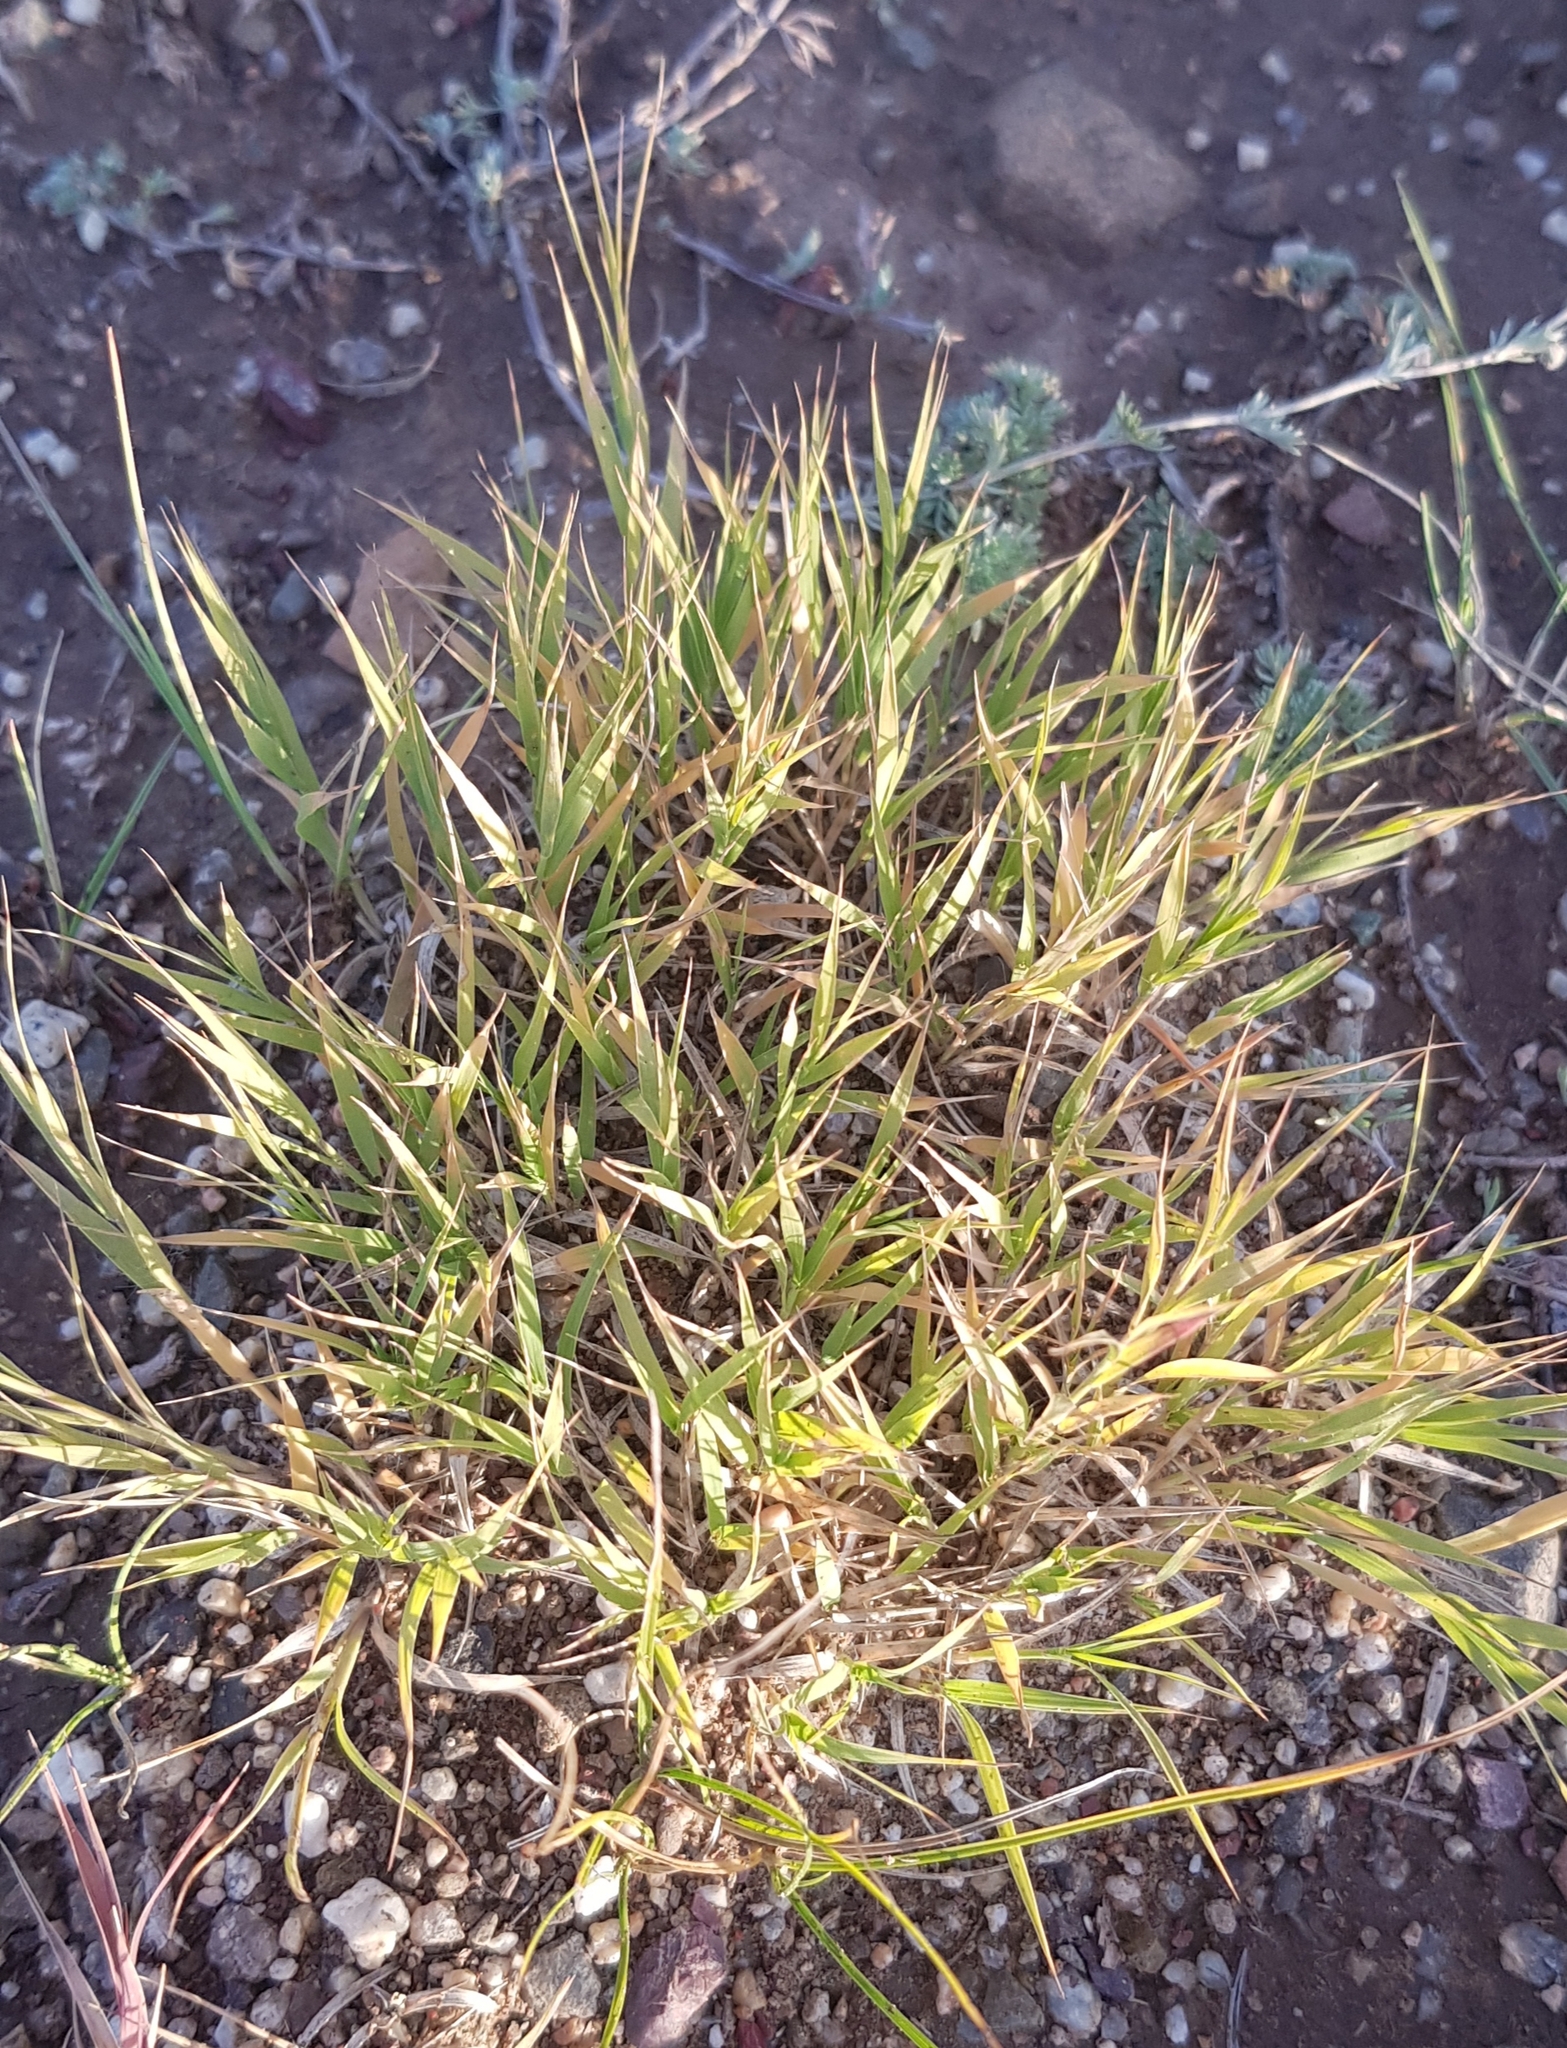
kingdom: Plantae
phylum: Tracheophyta
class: Liliopsida
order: Poales
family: Poaceae
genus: Cleistogenes
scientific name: Cleistogenes squarrosa
